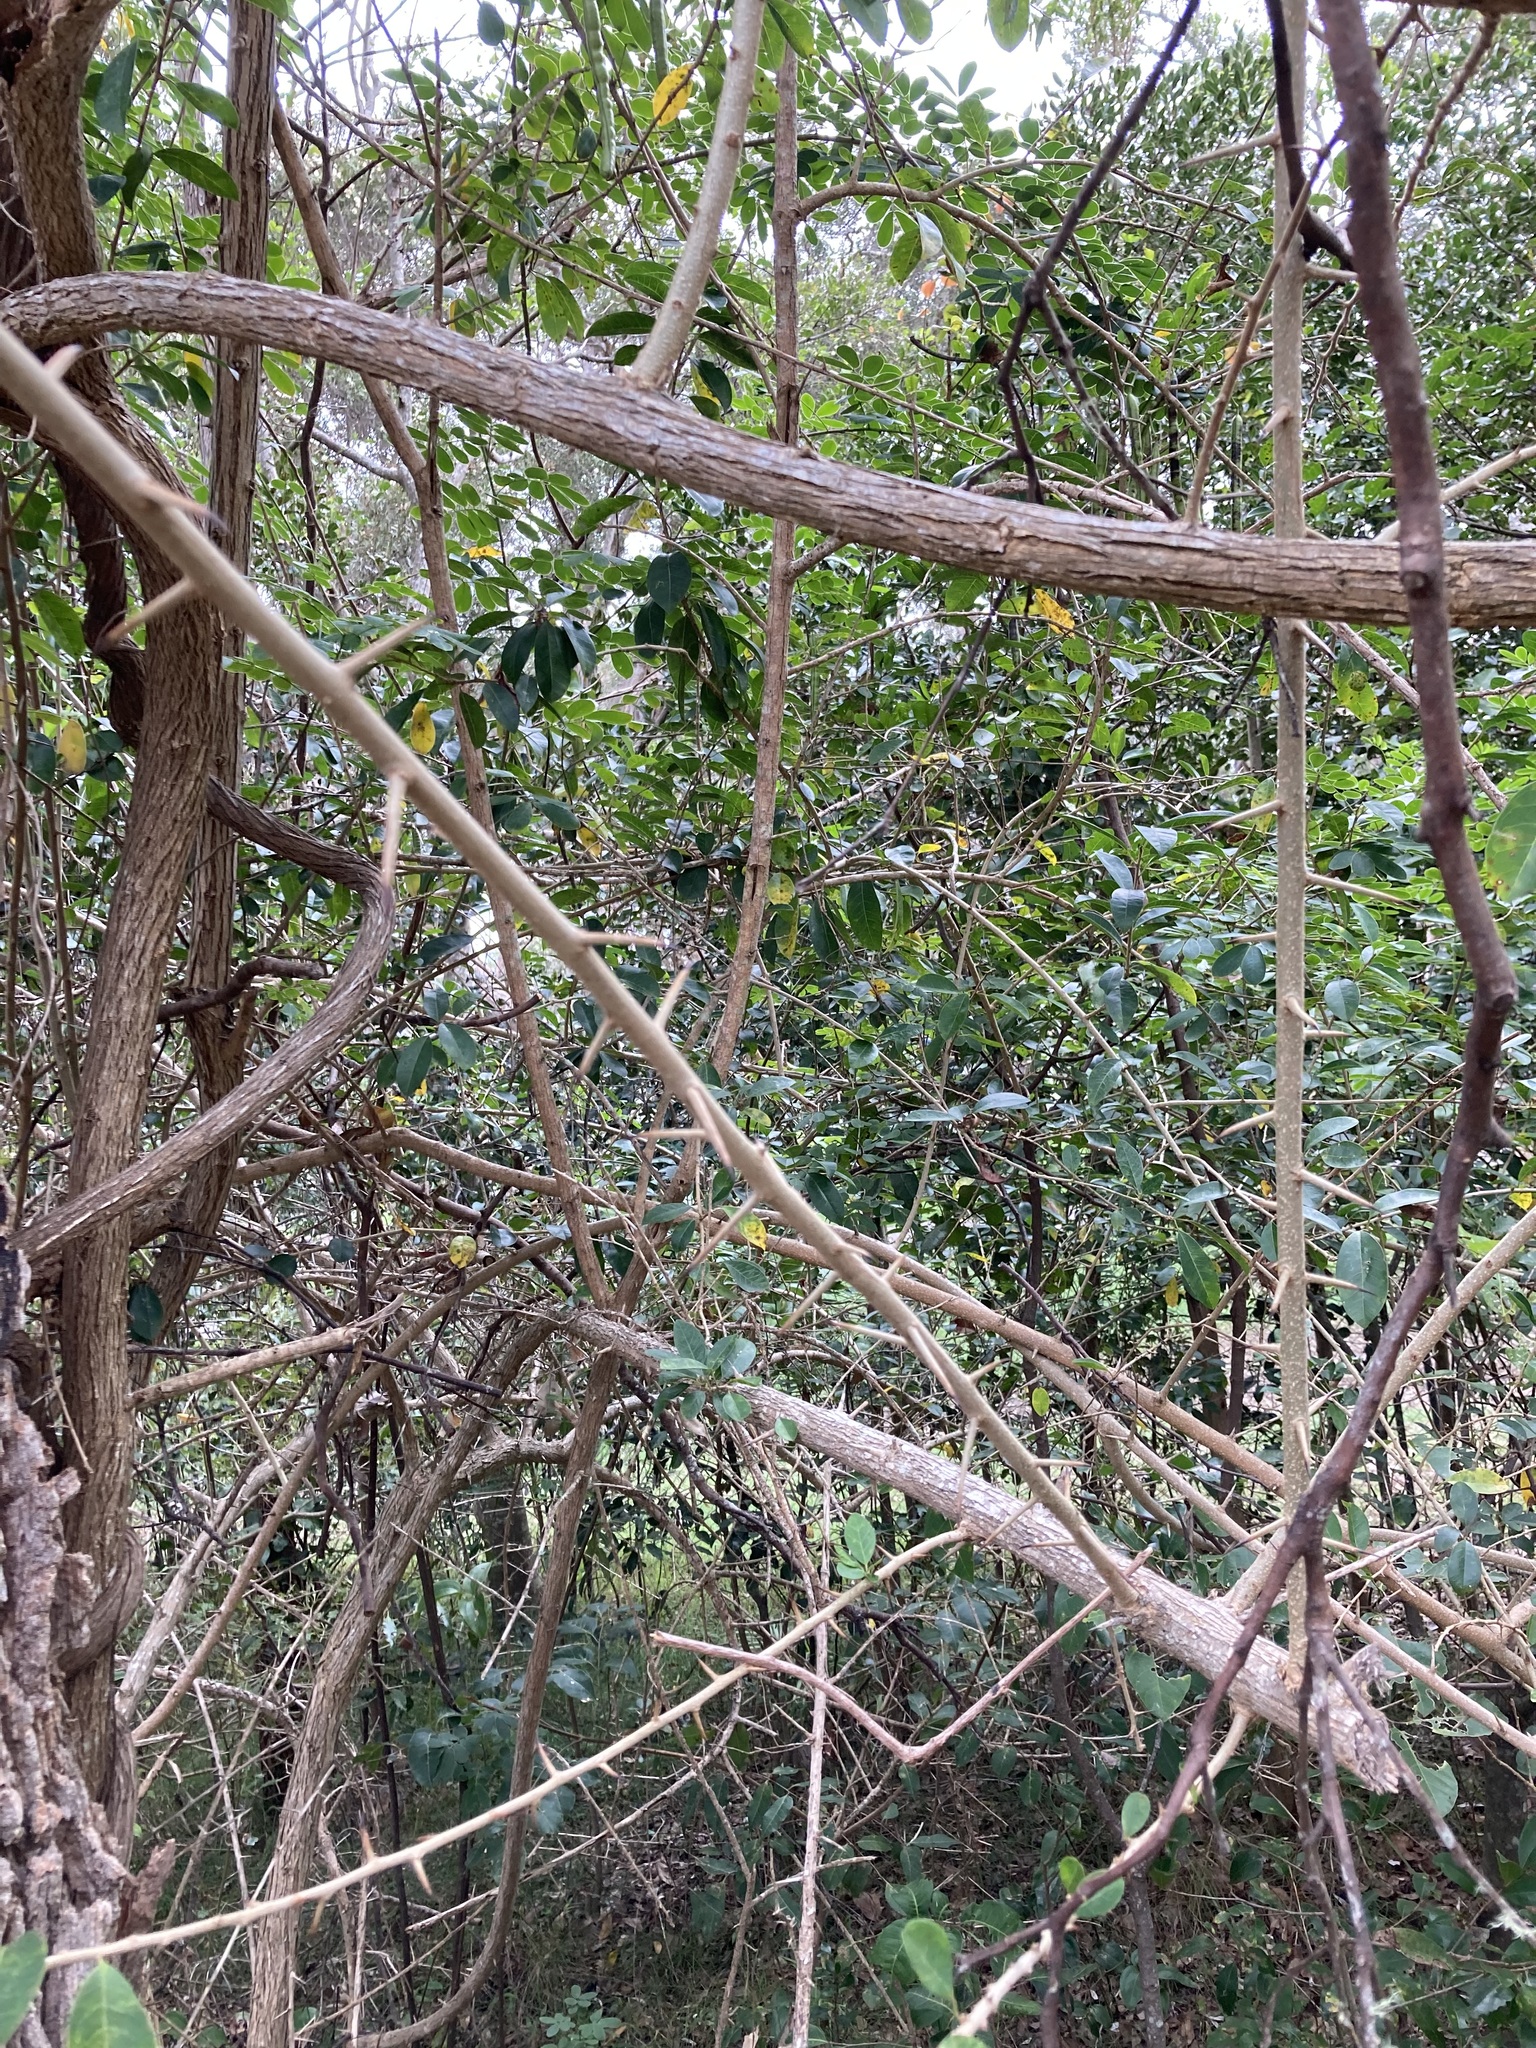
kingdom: Plantae
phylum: Tracheophyta
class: Magnoliopsida
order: Rosales
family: Moraceae
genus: Maclura
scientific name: Maclura cochinchinensis
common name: Cockspurthorn
